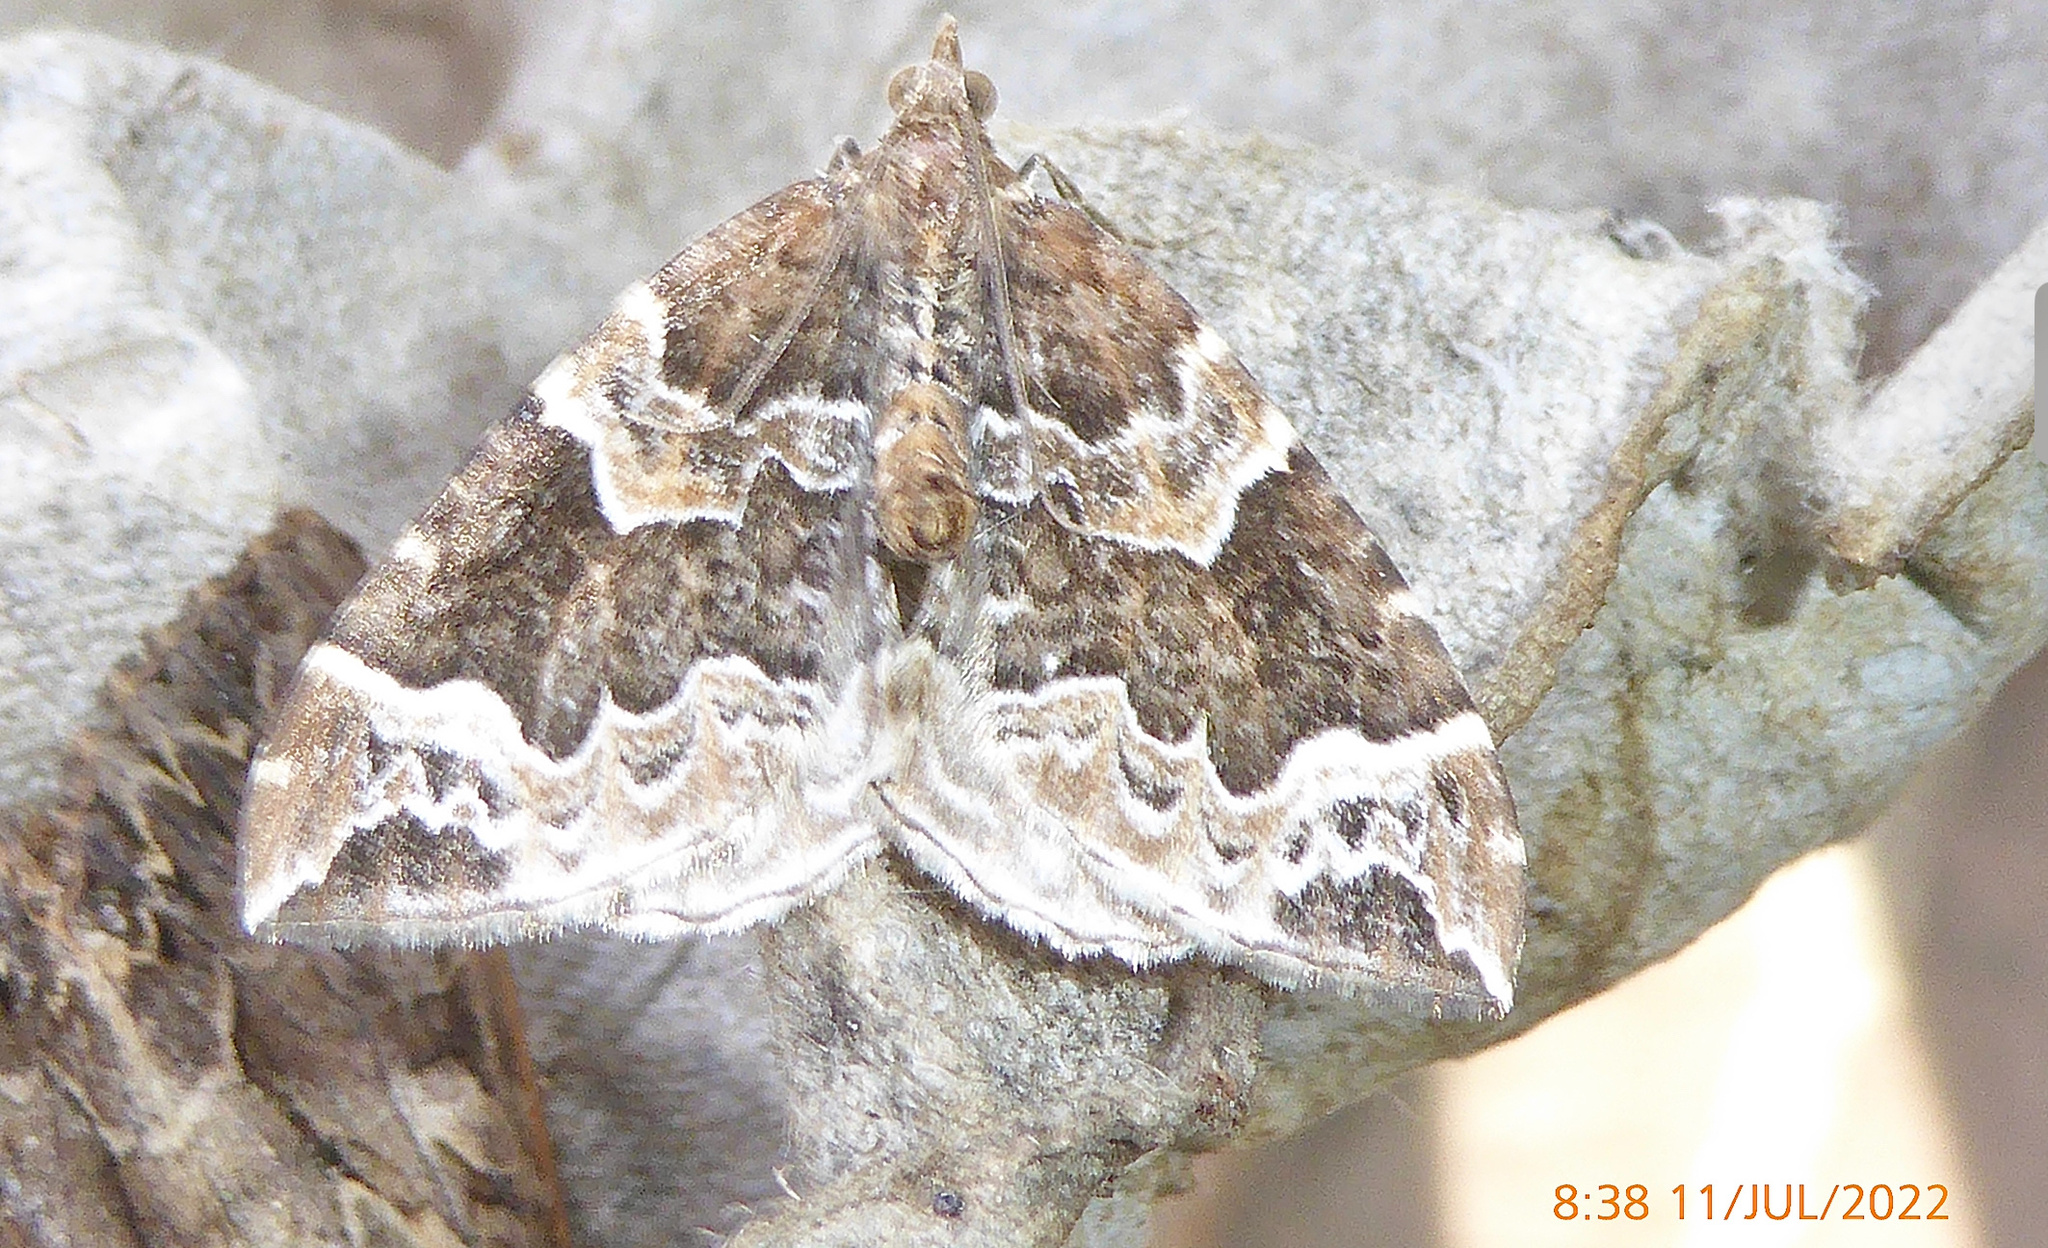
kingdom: Animalia
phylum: Arthropoda
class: Insecta
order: Lepidoptera
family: Geometridae
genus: Eulithis
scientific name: Eulithis prunata
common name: Phoenix
